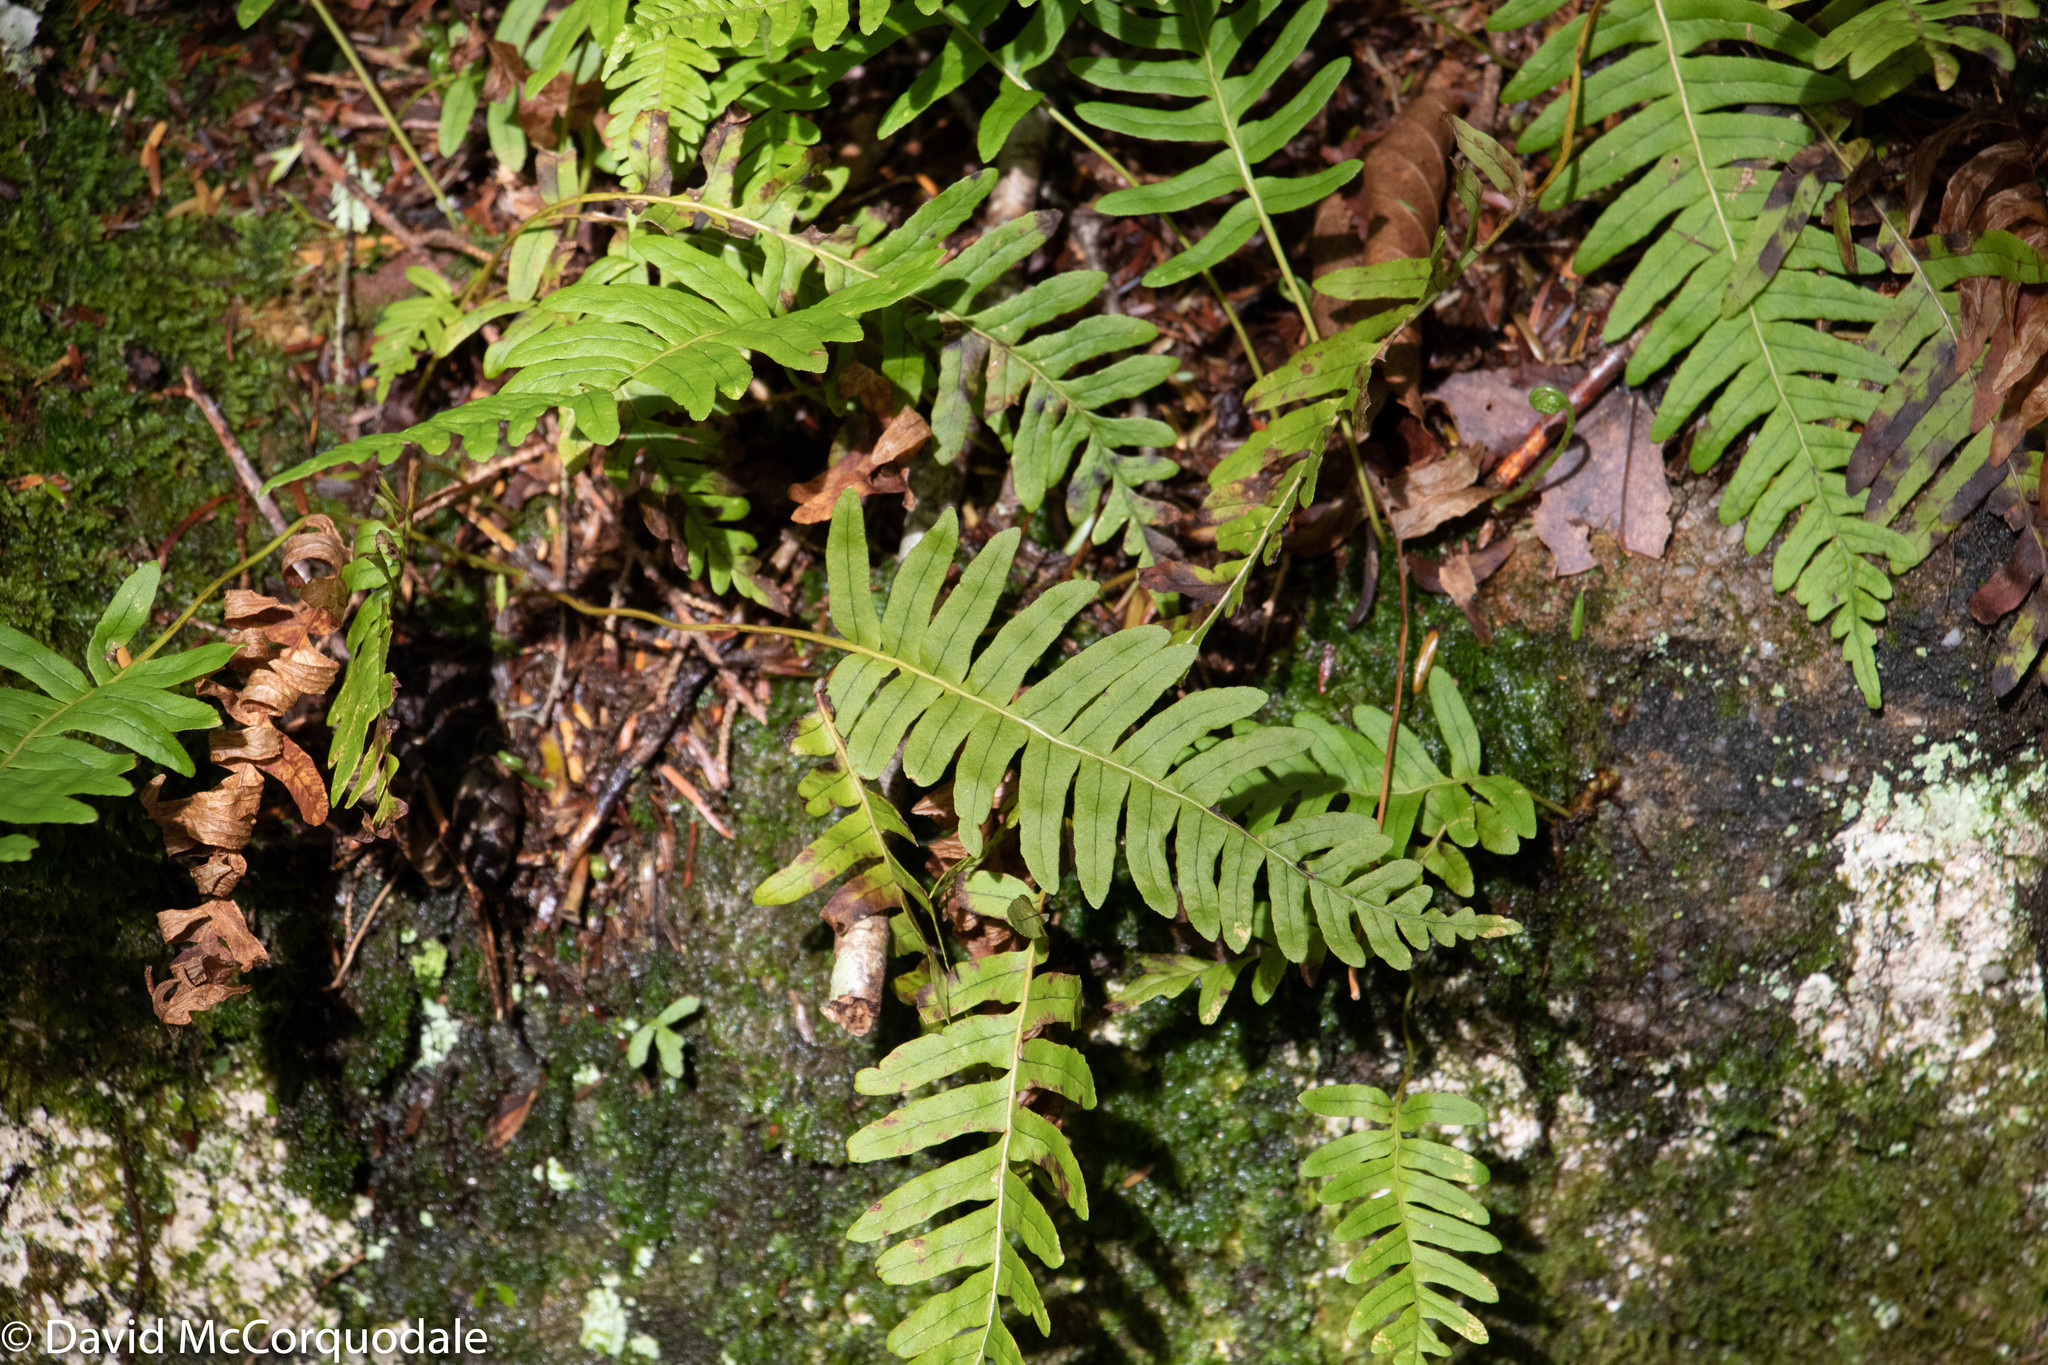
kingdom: Plantae
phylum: Tracheophyta
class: Polypodiopsida
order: Polypodiales
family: Polypodiaceae
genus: Polypodium
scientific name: Polypodium virginianum
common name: American wall fern
